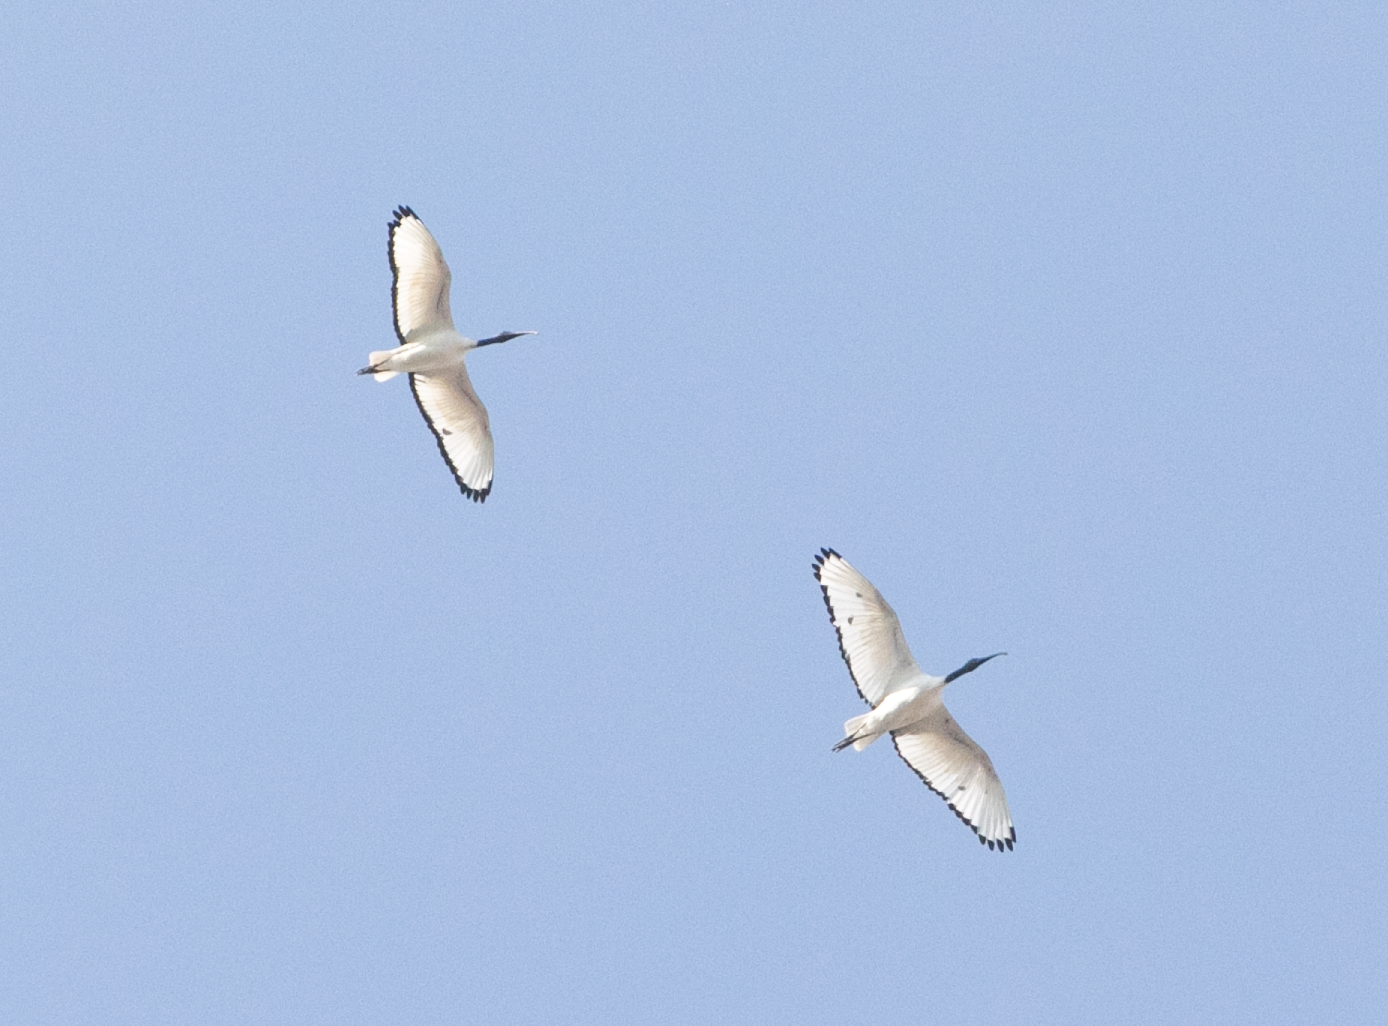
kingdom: Animalia
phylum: Chordata
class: Aves
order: Pelecaniformes
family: Threskiornithidae
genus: Threskiornis
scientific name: Threskiornis aethiopicus
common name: Sacred ibis
